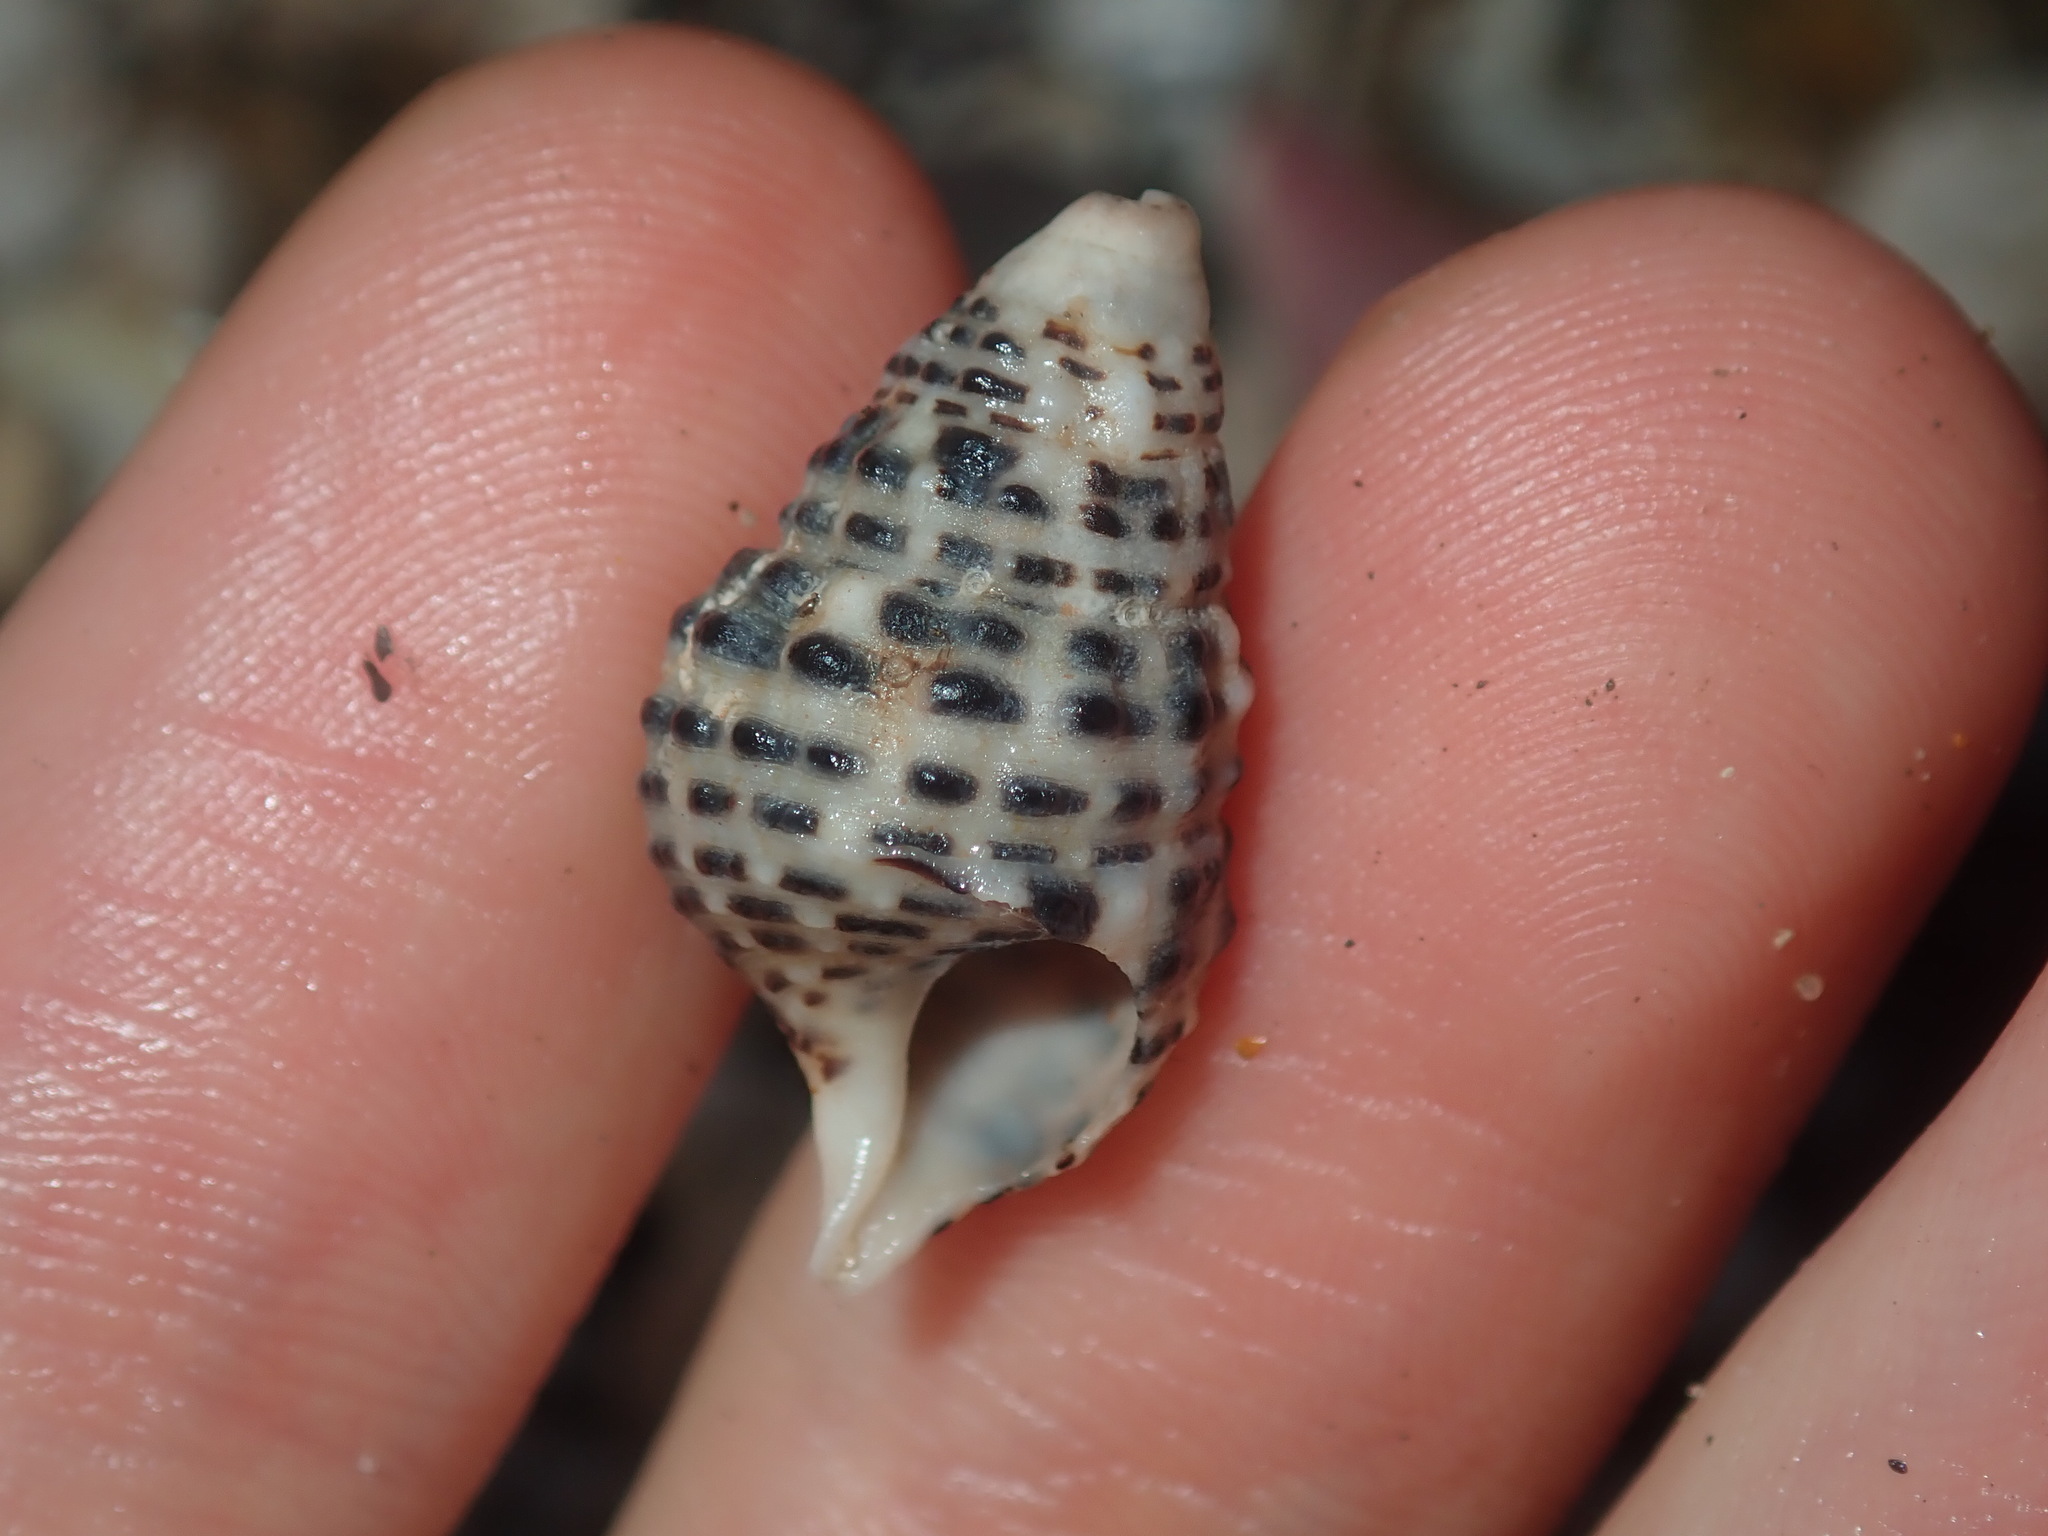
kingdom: Animalia
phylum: Mollusca
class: Gastropoda
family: Cerithiidae
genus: Clypeomorus
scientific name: Clypeomorus petrosa
